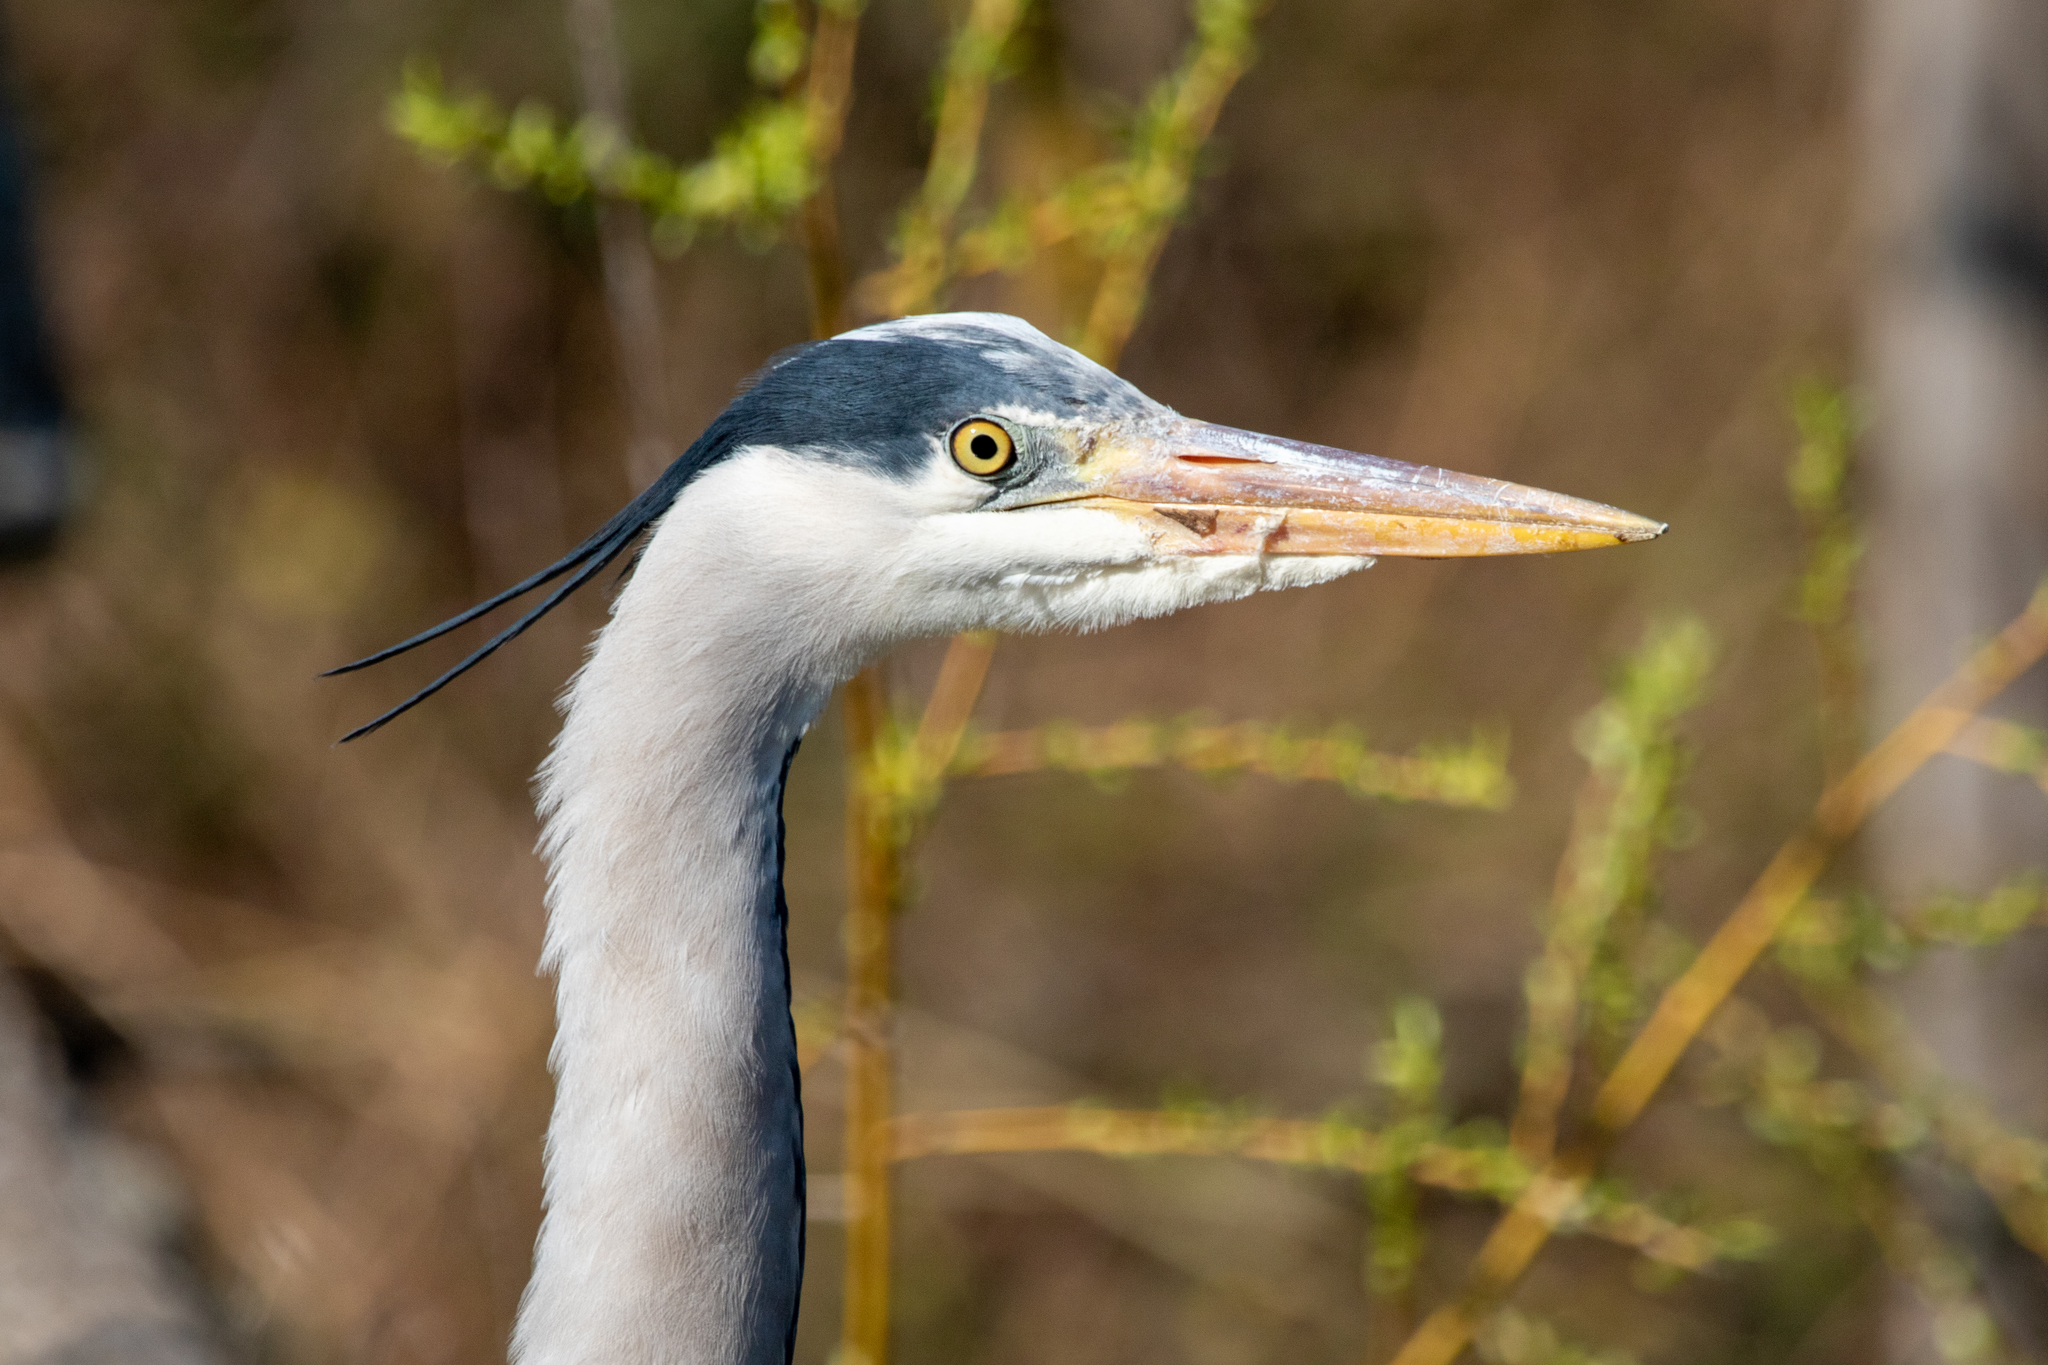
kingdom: Animalia
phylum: Chordata
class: Aves
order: Pelecaniformes
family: Ardeidae
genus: Ardea
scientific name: Ardea cinerea
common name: Grey heron
